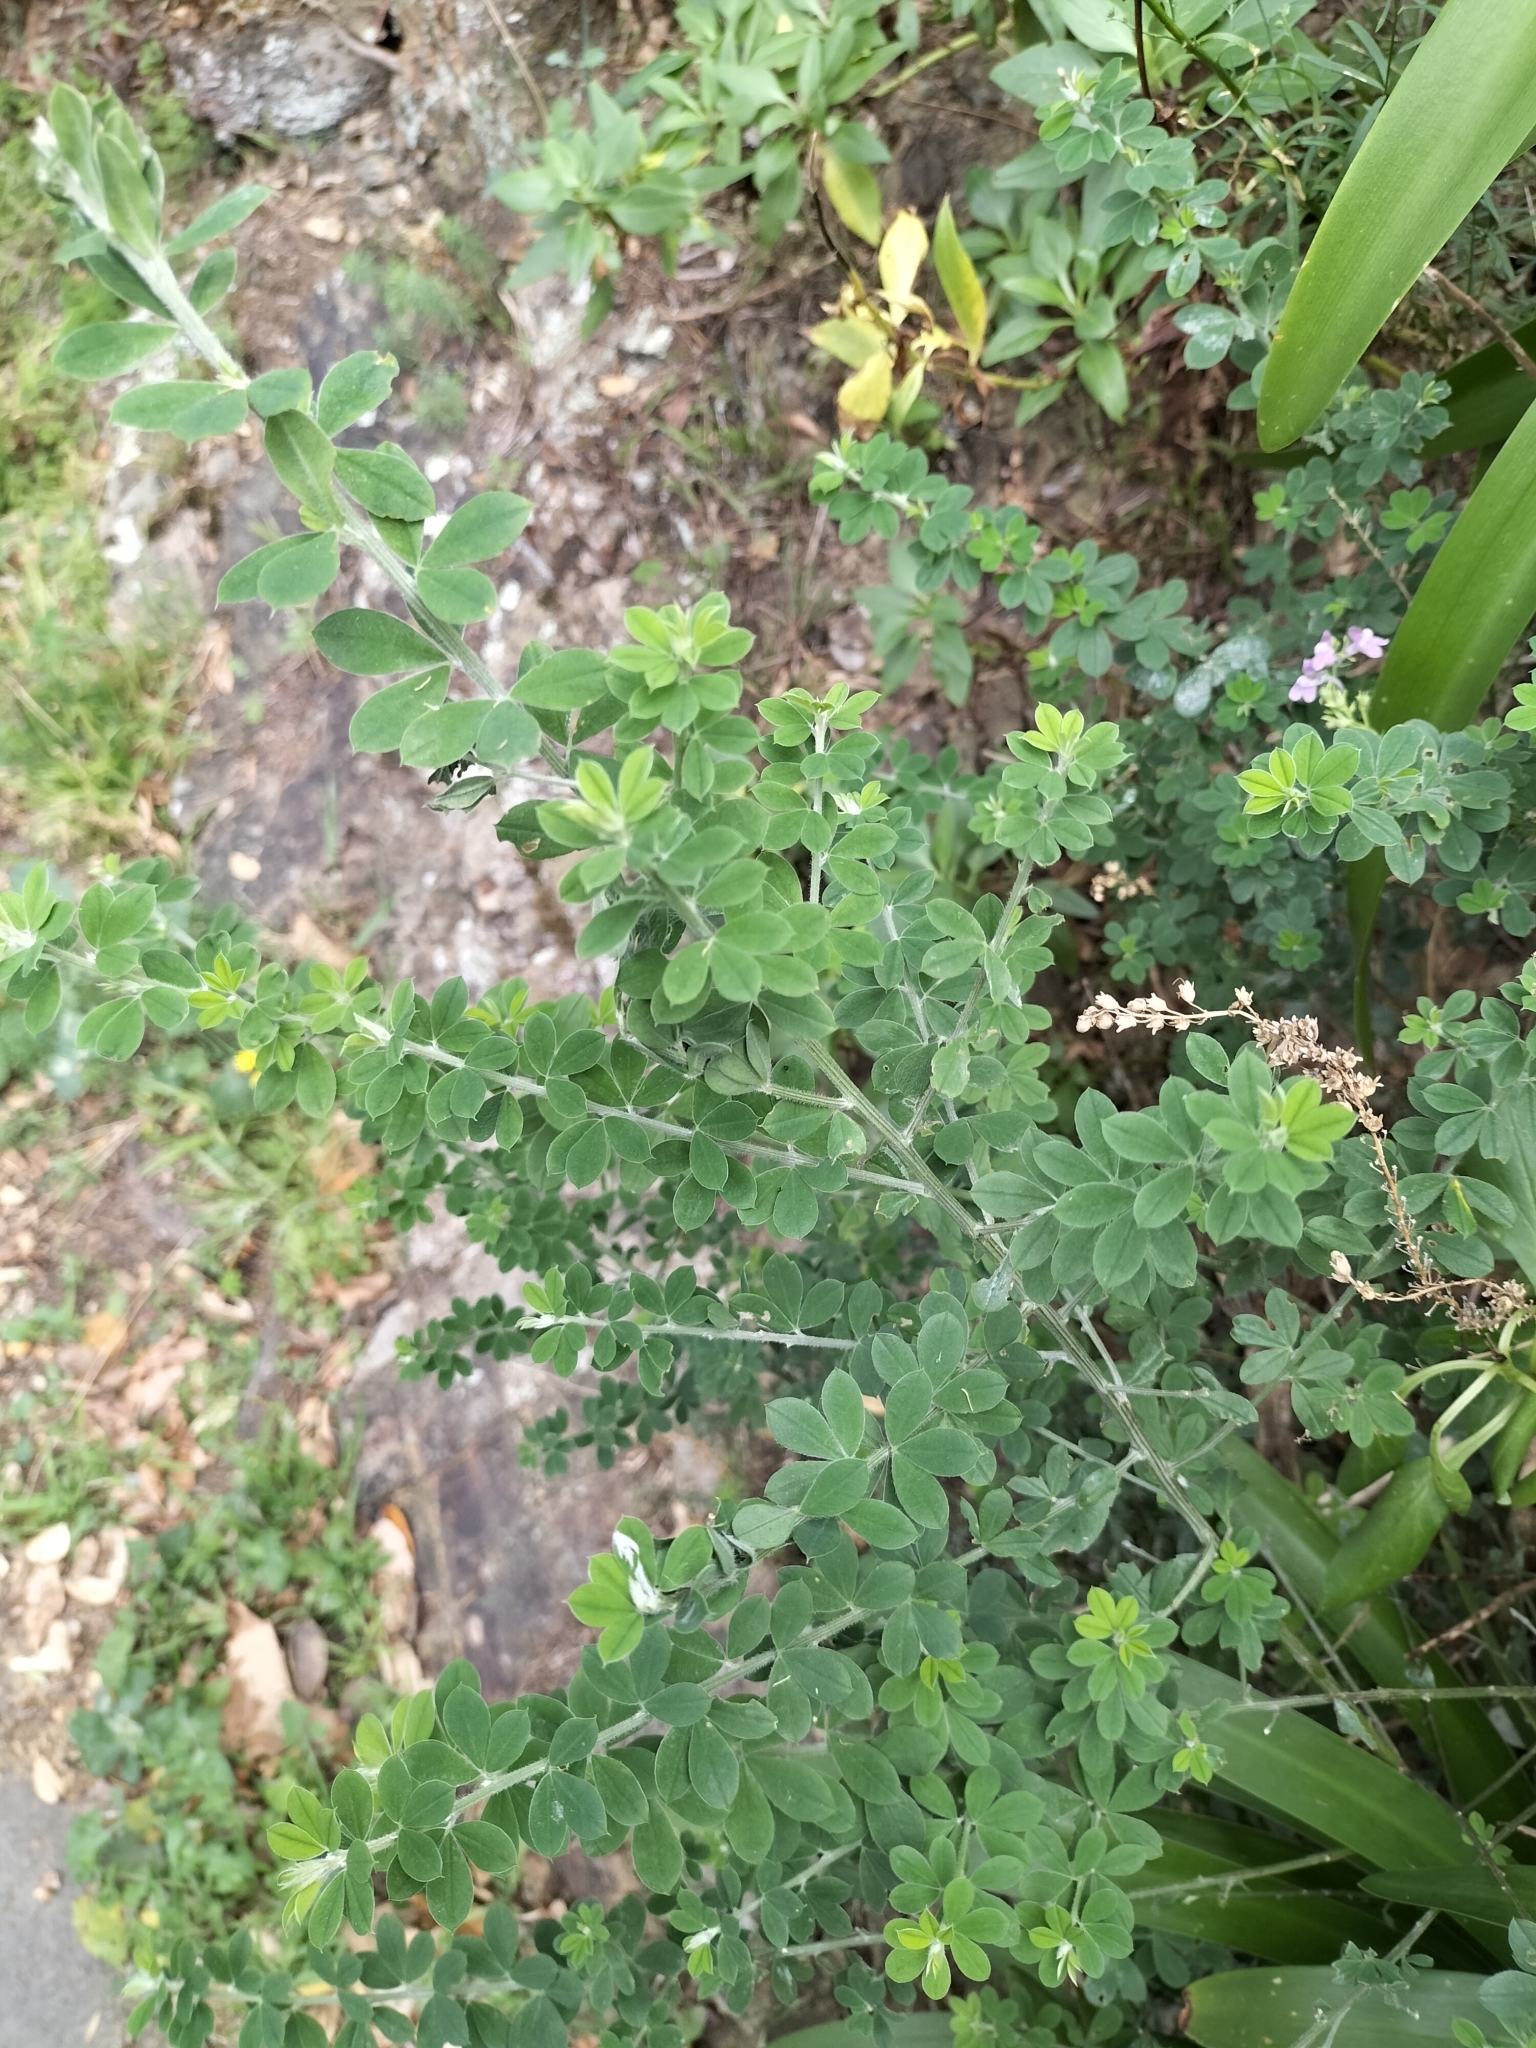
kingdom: Plantae
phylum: Tracheophyta
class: Magnoliopsida
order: Fabales
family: Fabaceae
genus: Genista
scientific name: Genista monspessulana
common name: Montpellier broom
